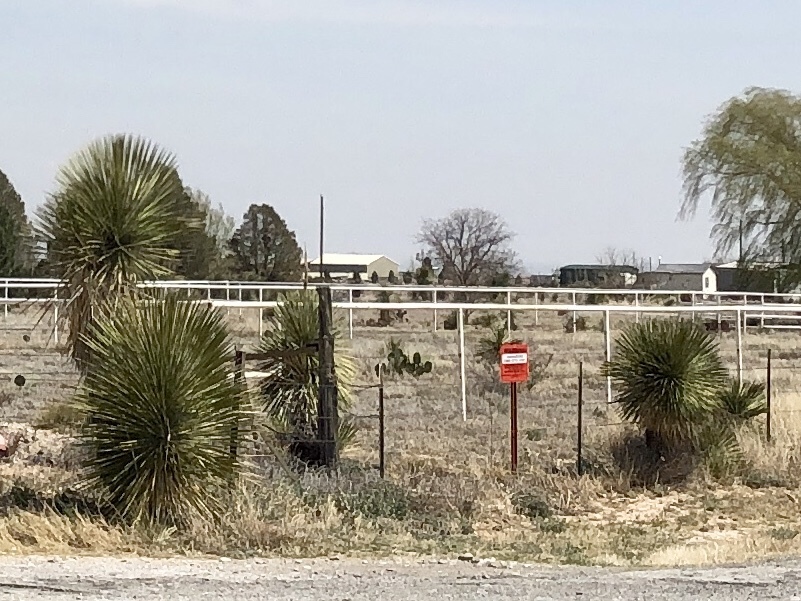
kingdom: Plantae
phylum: Tracheophyta
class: Liliopsida
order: Asparagales
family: Asparagaceae
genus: Yucca
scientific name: Yucca elata
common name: Palmella
